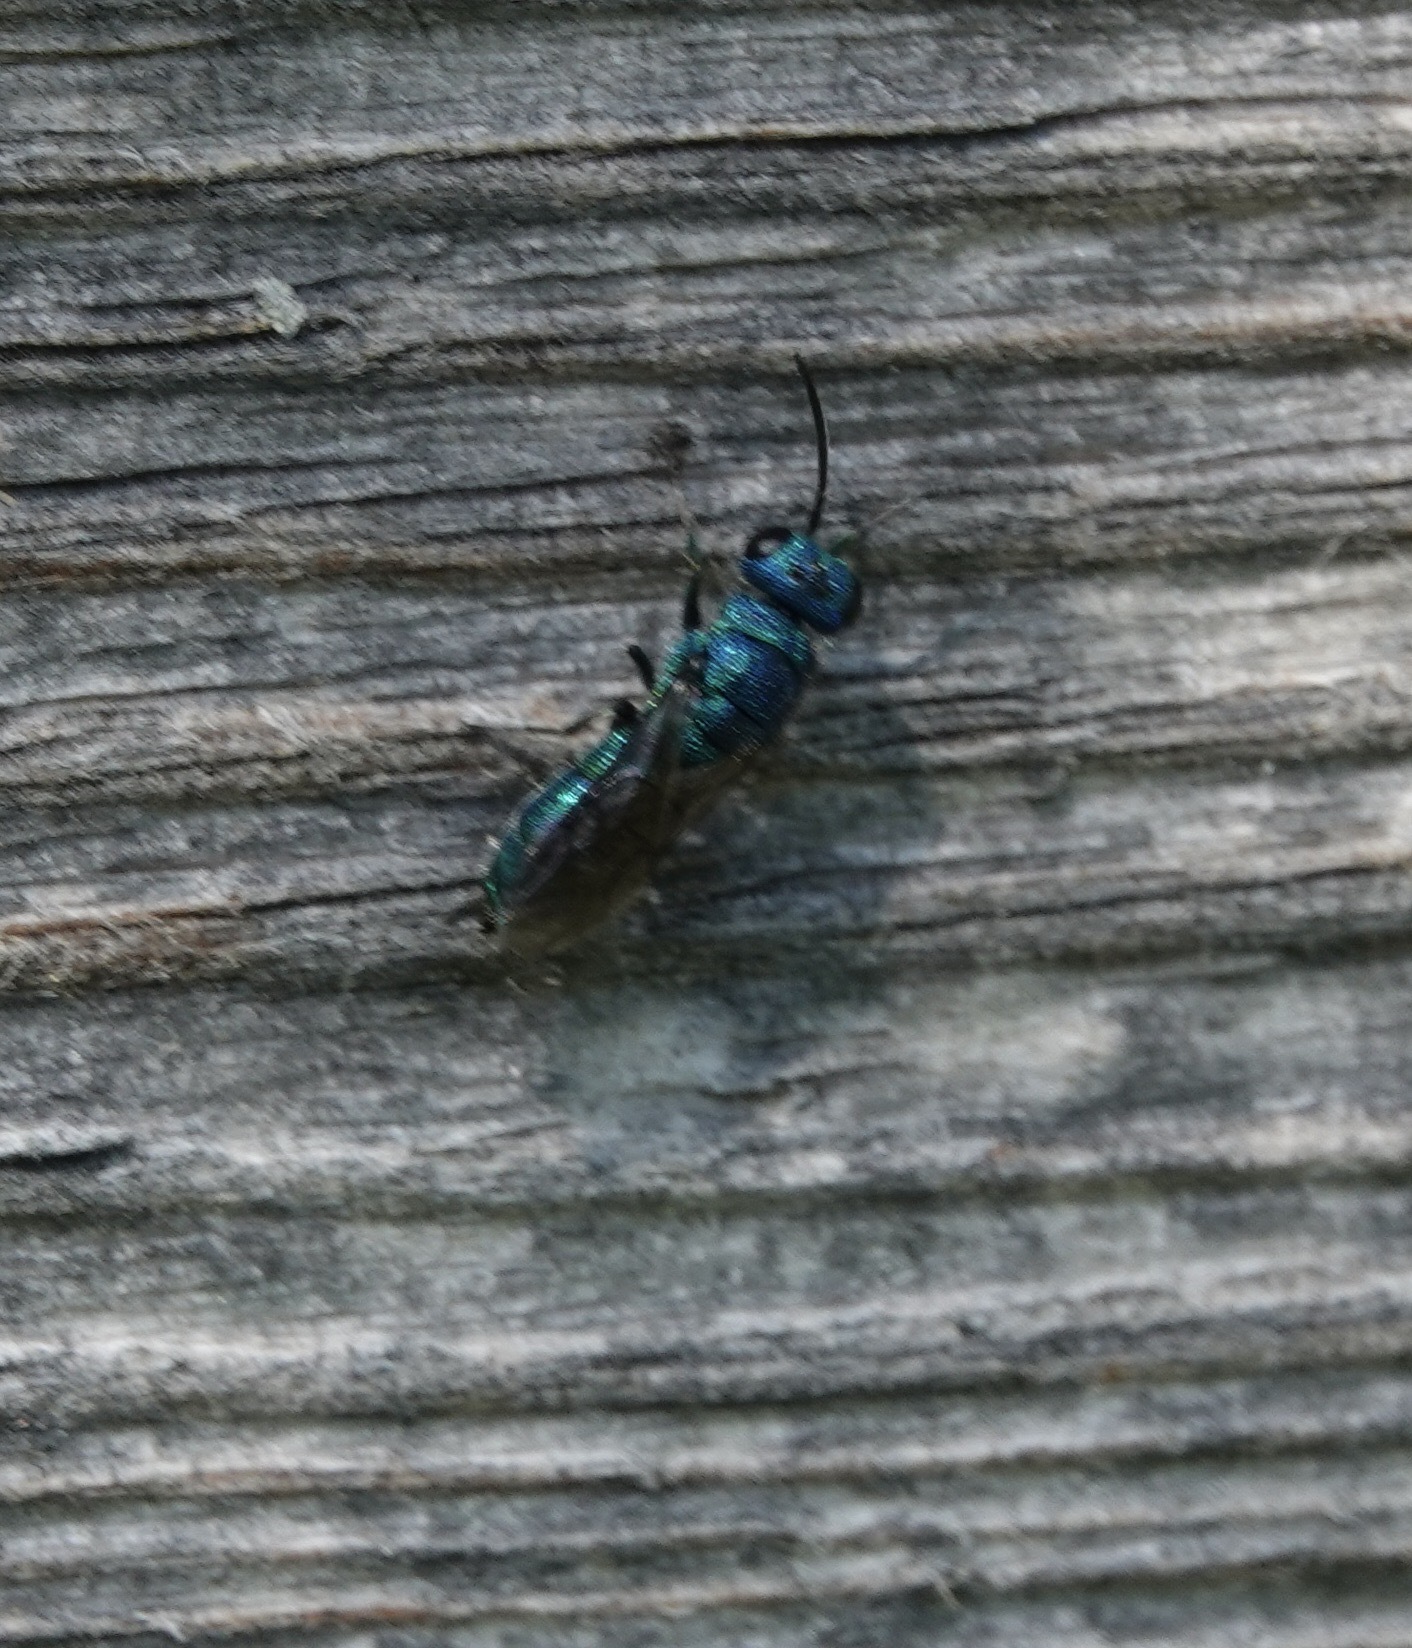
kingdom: Animalia
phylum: Arthropoda
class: Insecta
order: Hymenoptera
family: Pompilidae
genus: Pepsis
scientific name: Pepsis cyanea
